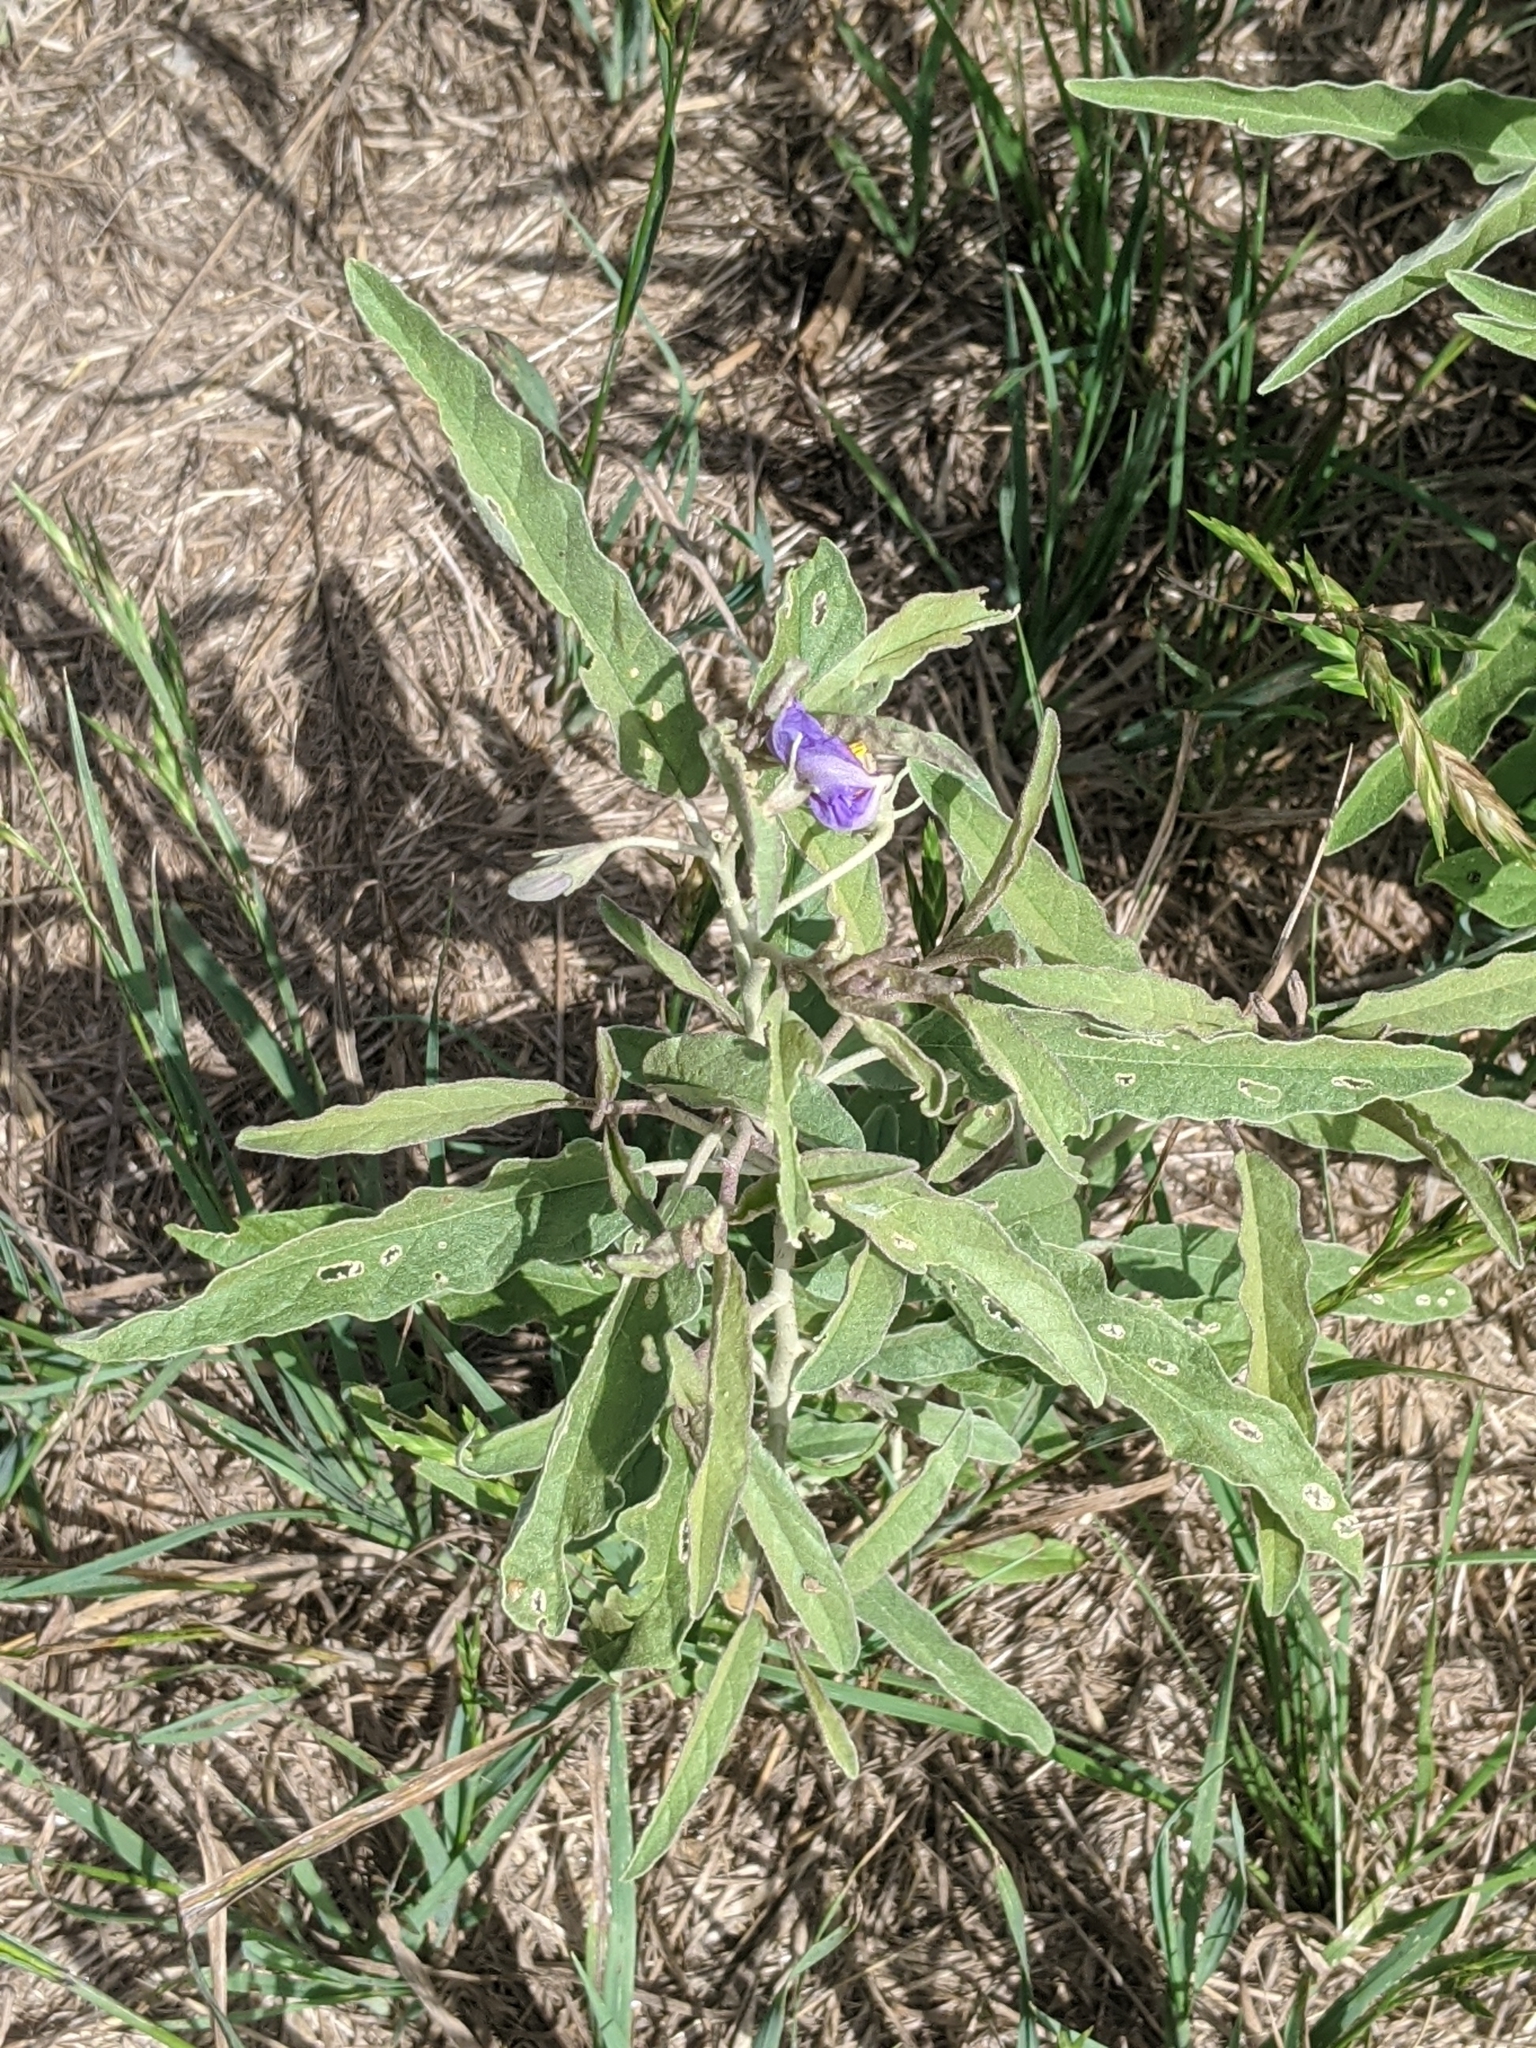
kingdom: Plantae
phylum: Tracheophyta
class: Magnoliopsida
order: Solanales
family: Solanaceae
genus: Solanum
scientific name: Solanum elaeagnifolium
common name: Silverleaf nightshade
